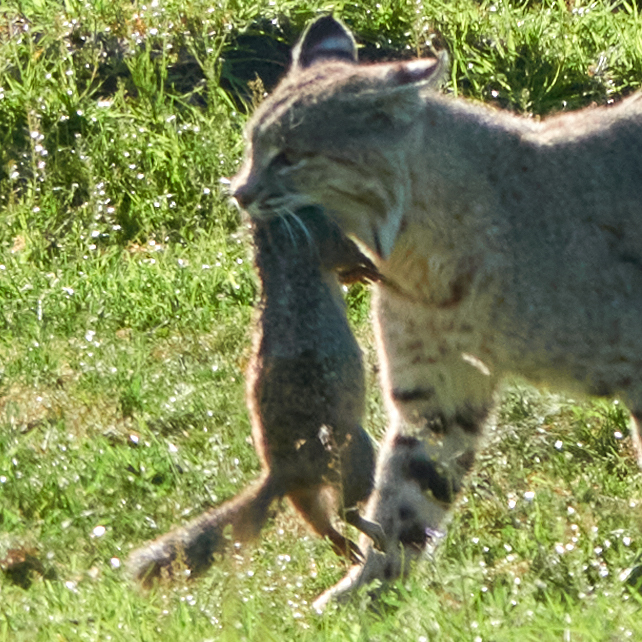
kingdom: Animalia
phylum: Chordata
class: Mammalia
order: Rodentia
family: Sciuridae
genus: Otospermophilus
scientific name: Otospermophilus beecheyi
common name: California ground squirrel
